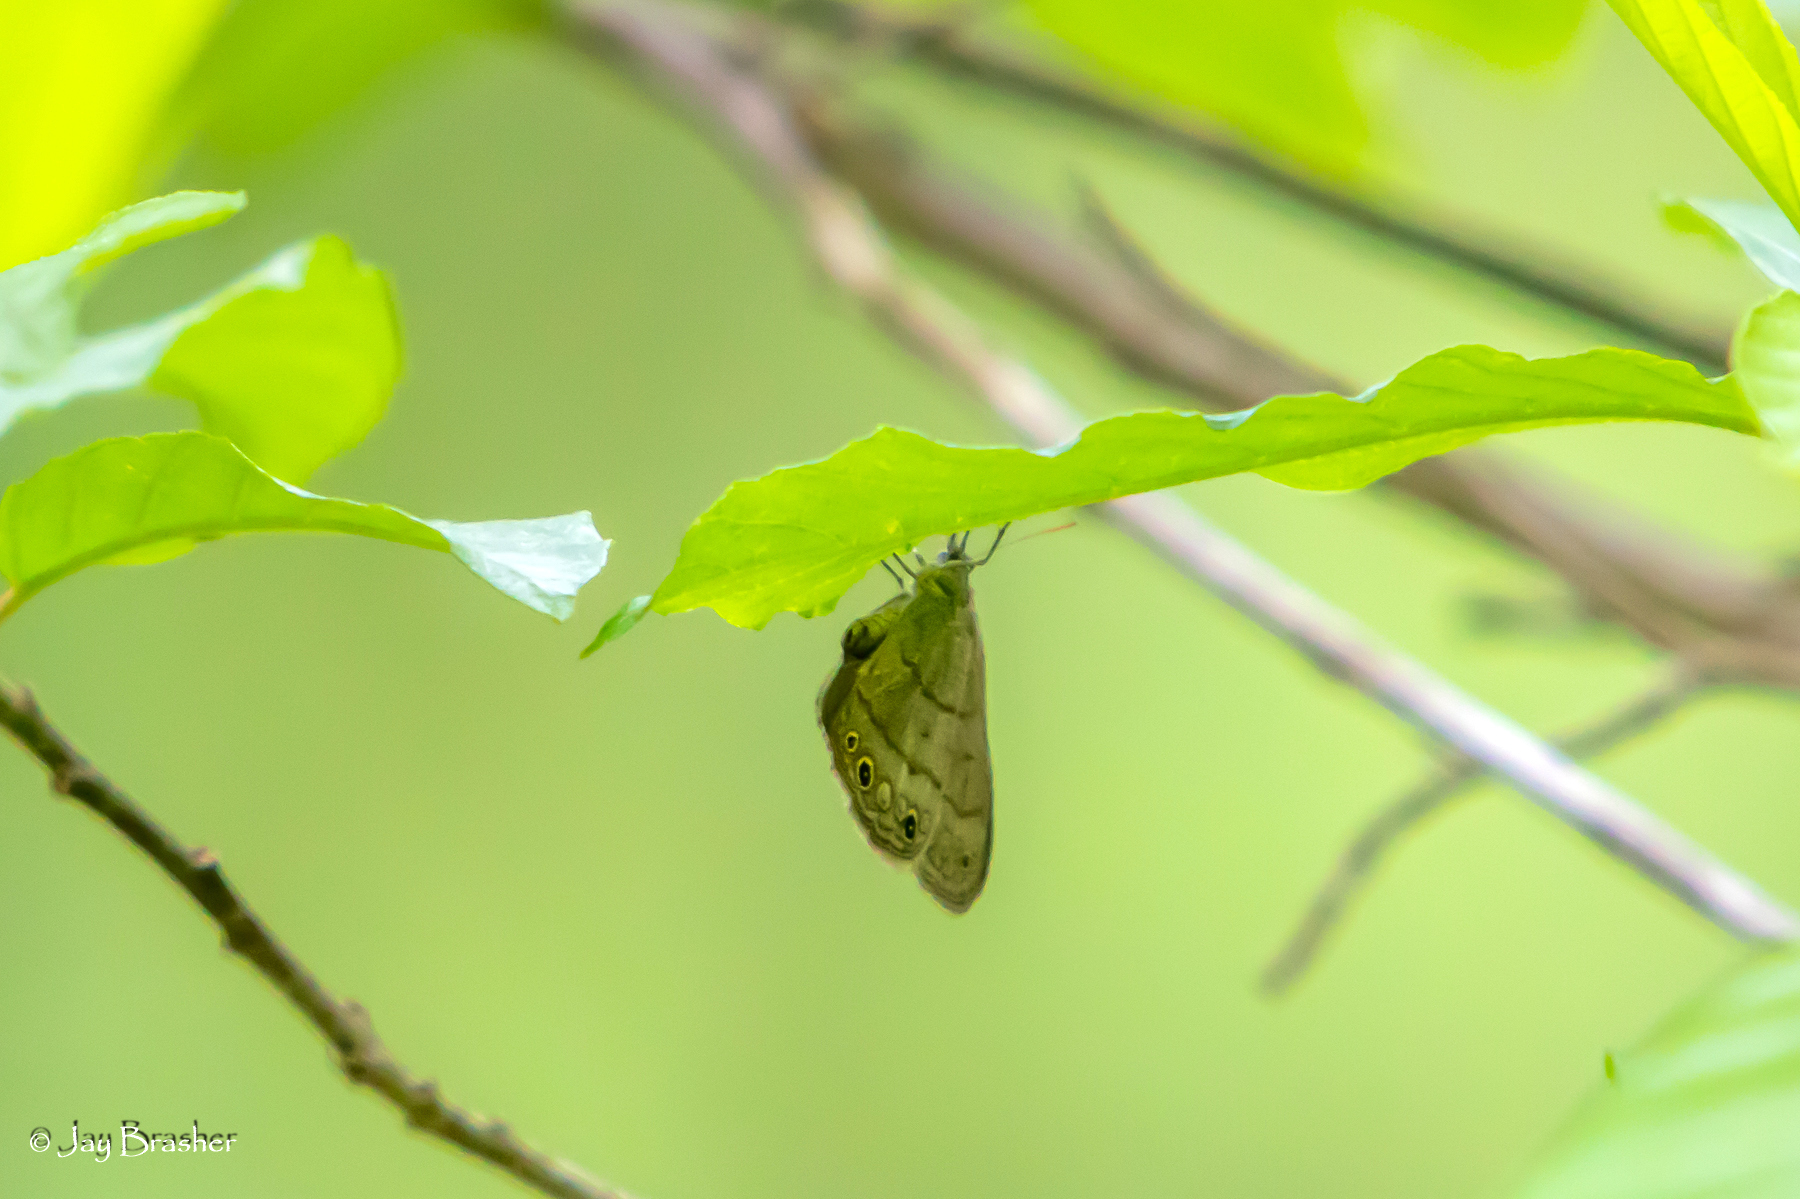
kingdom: Animalia
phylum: Arthropoda
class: Insecta
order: Lepidoptera
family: Nymphalidae
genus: Hermeuptychia
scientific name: Hermeuptychia hermes
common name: Hermes satyr
